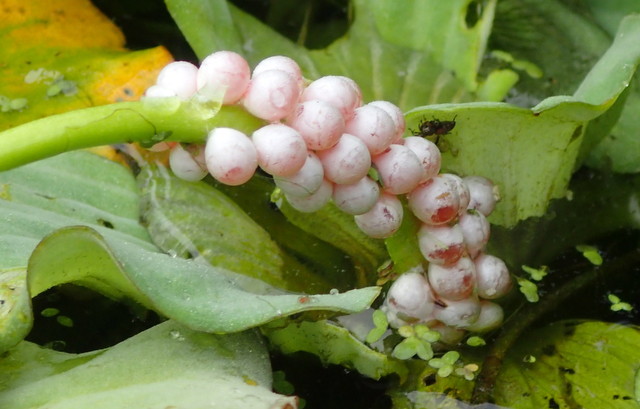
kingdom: Animalia
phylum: Mollusca
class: Gastropoda
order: Architaenioglossa
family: Ampullariidae
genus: Pomacea
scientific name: Pomacea paludosa
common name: Florida applesnail
